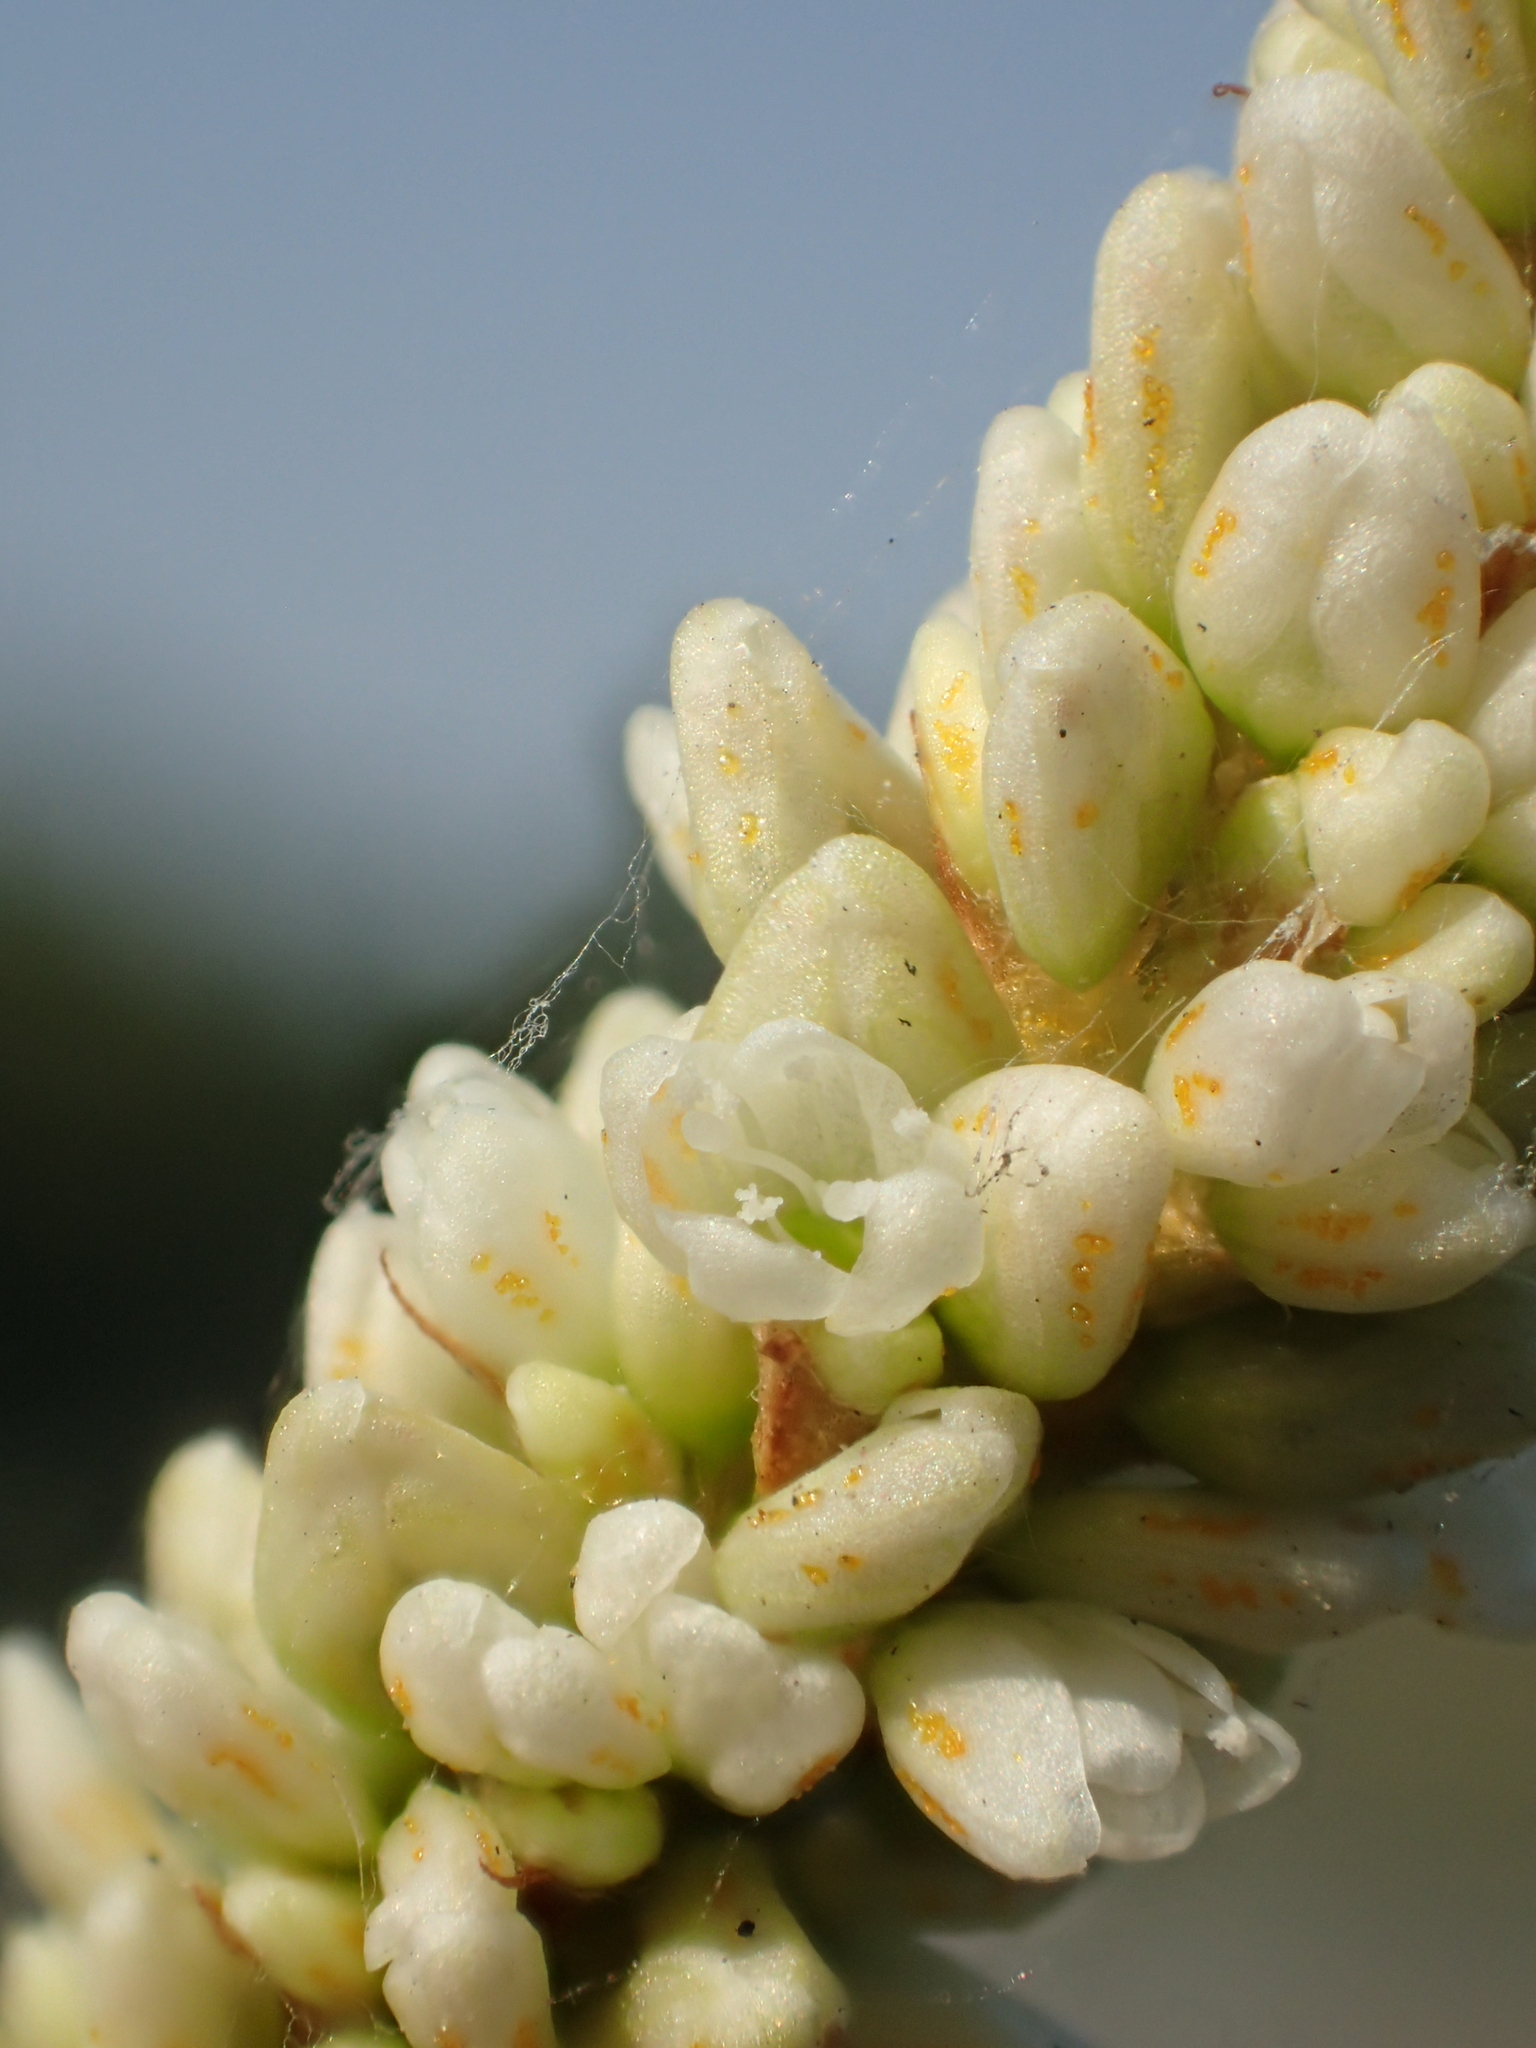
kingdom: Plantae
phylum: Tracheophyta
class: Magnoliopsida
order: Caryophyllales
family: Polygonaceae
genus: Persicaria
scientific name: Persicaria lanata
